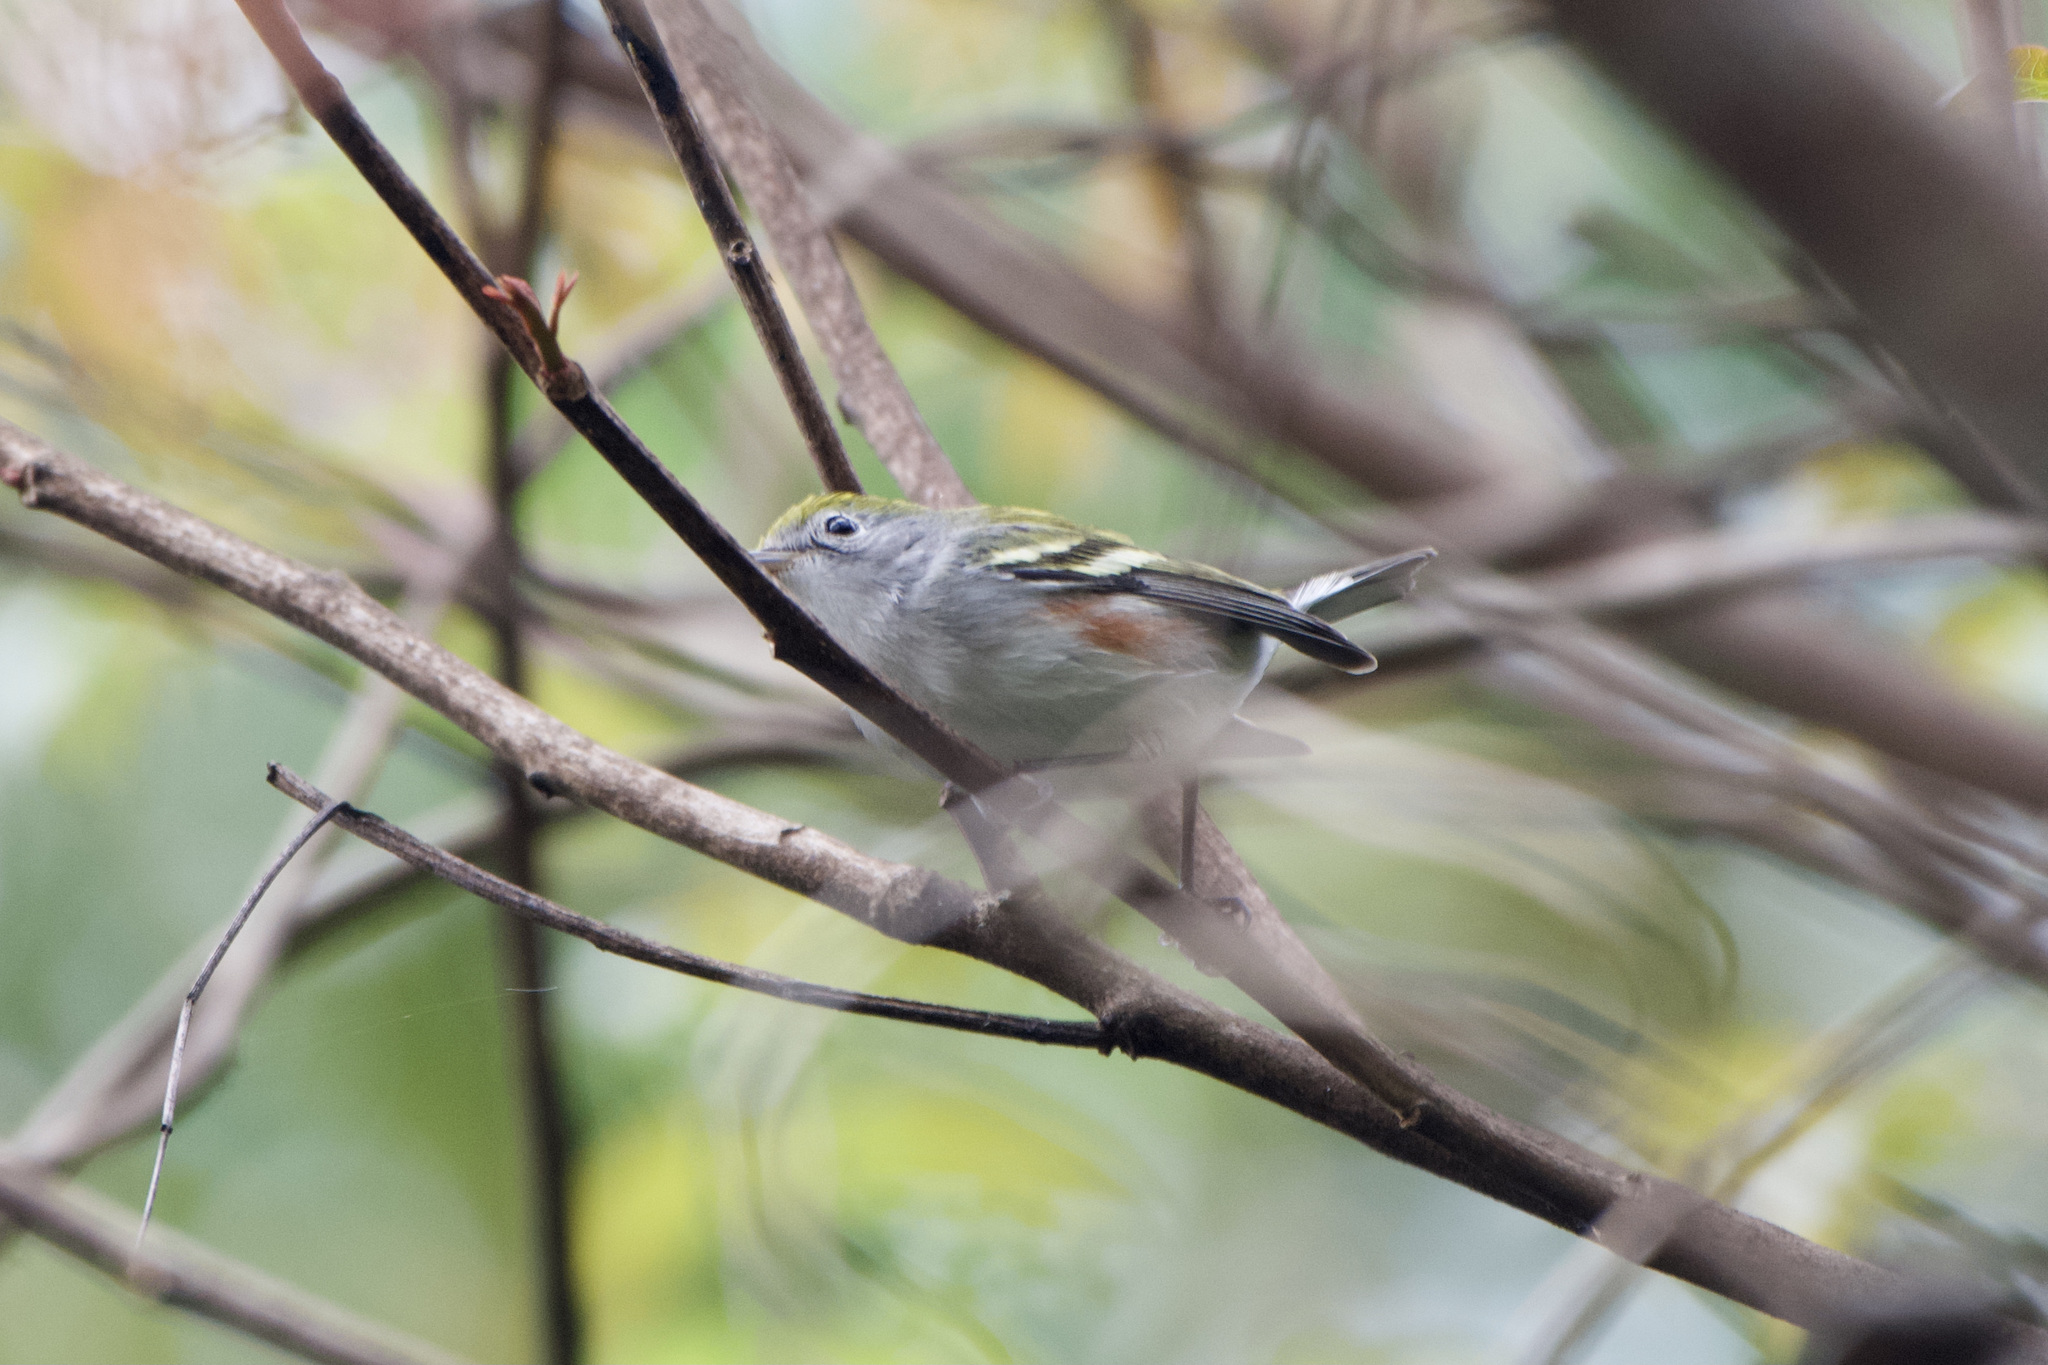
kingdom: Animalia
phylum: Chordata
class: Aves
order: Passeriformes
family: Parulidae
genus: Setophaga
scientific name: Setophaga pensylvanica
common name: Chestnut-sided warbler
